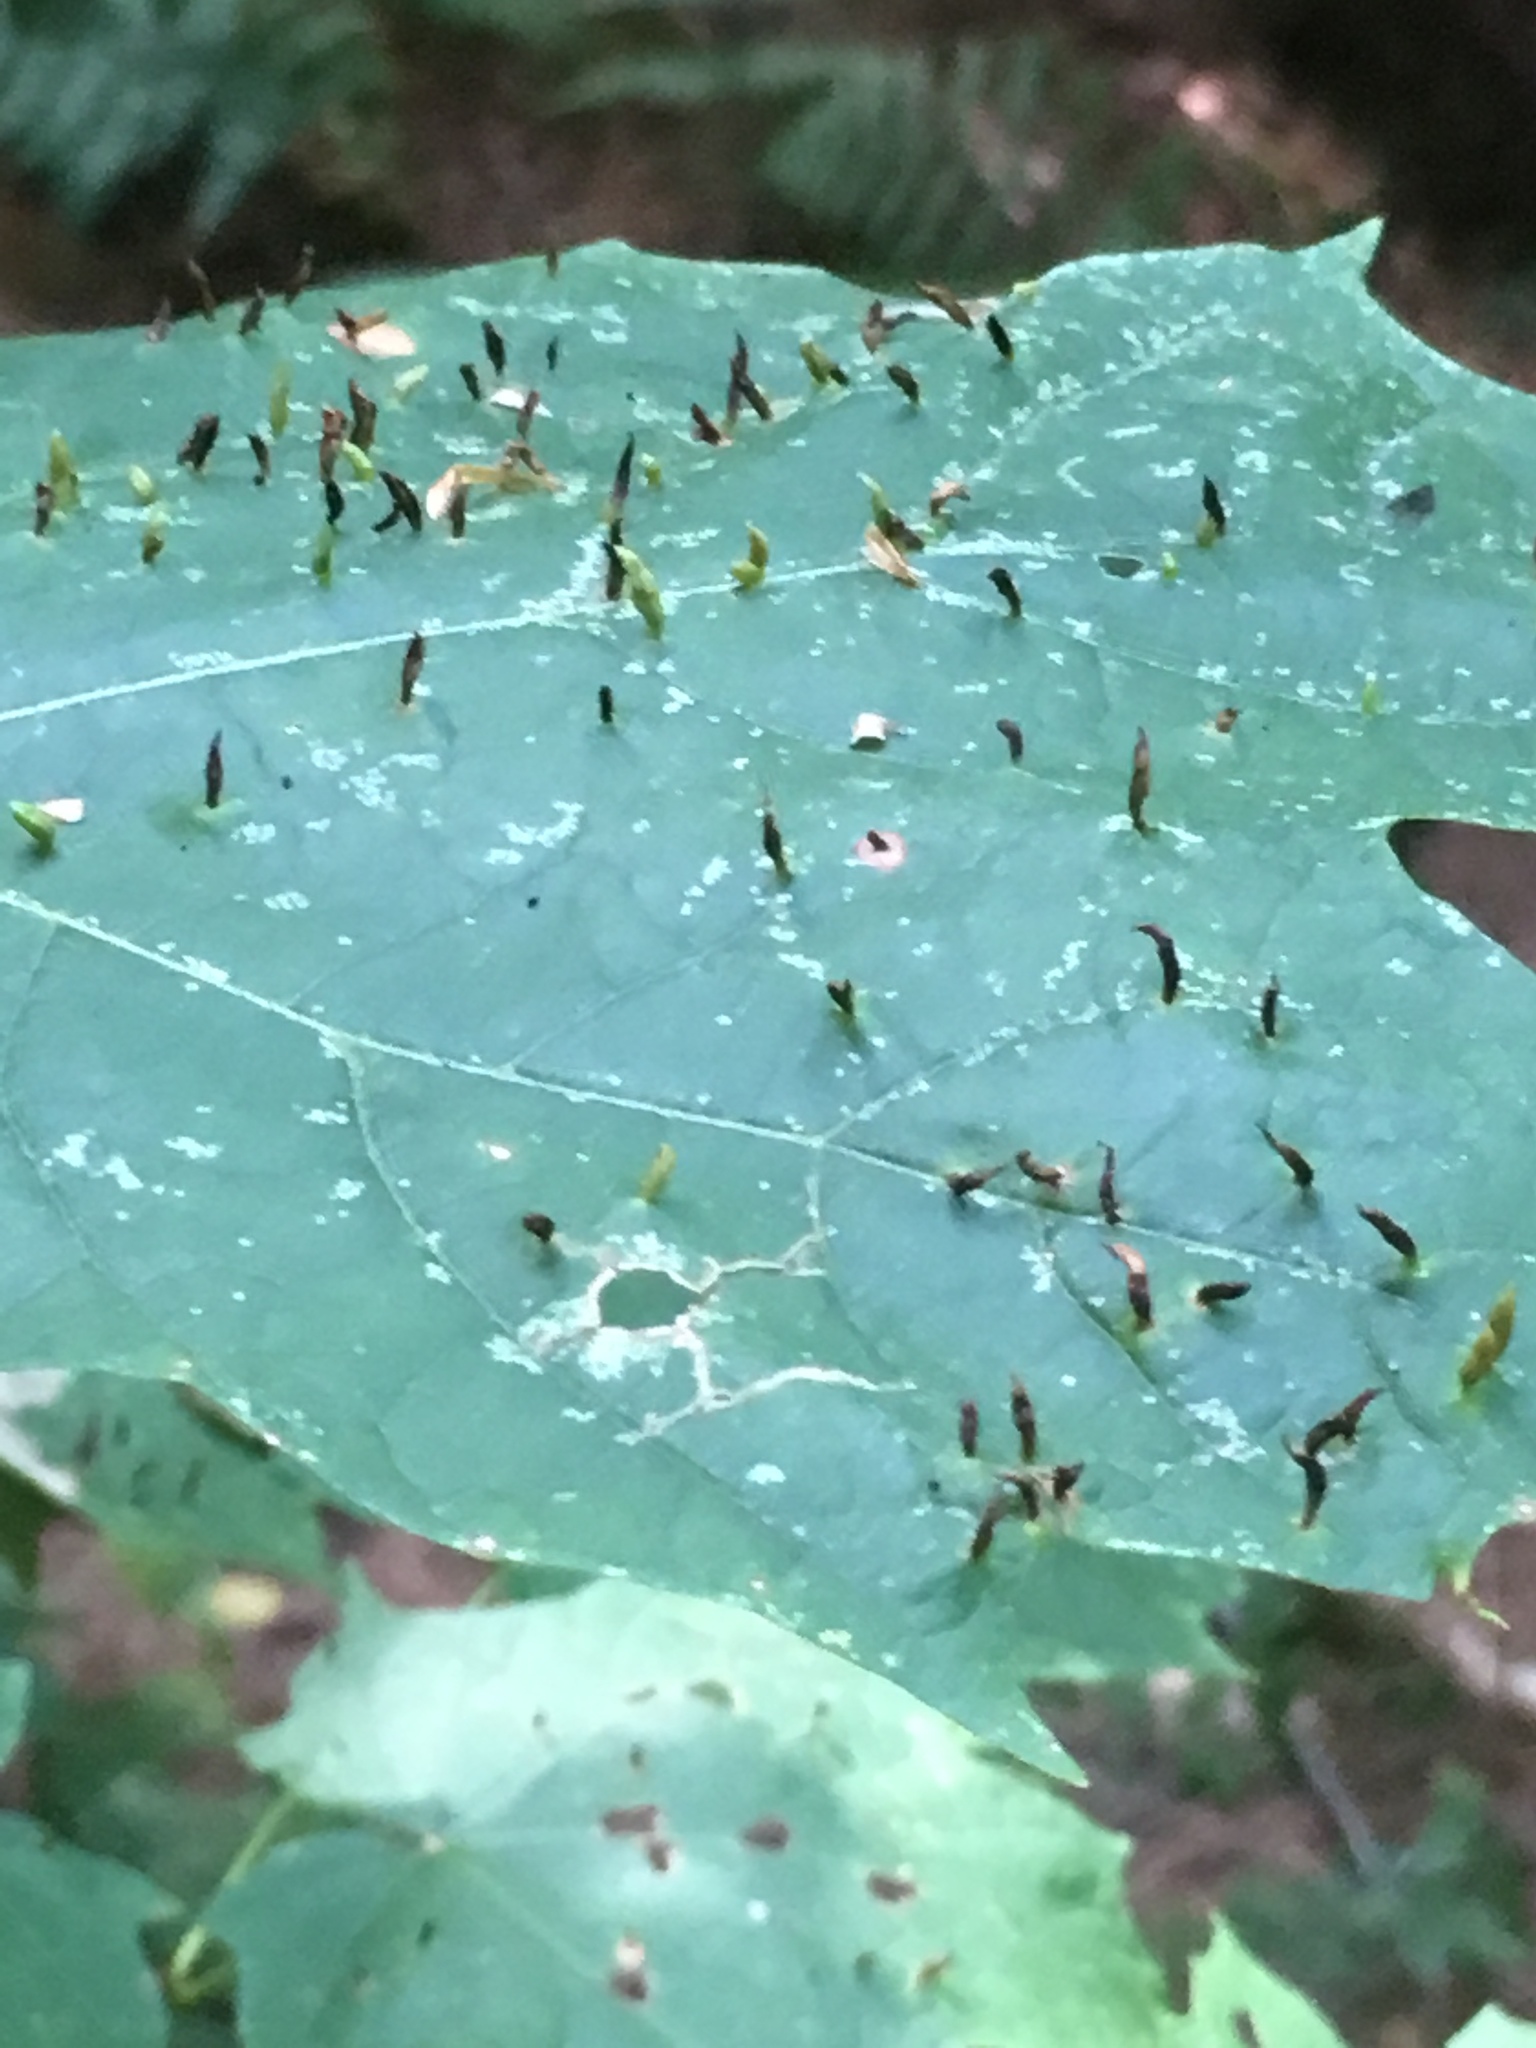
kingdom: Animalia
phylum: Arthropoda
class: Arachnida
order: Trombidiformes
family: Eriophyidae
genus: Vasates
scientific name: Vasates aceriscrumena
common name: Maple spindle gall mite
